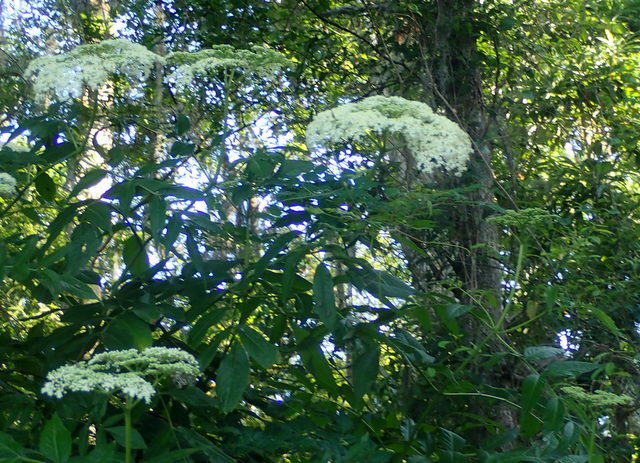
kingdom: Plantae
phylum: Tracheophyta
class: Magnoliopsida
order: Dipsacales
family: Viburnaceae
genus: Sambucus
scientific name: Sambucus canadensis
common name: American elder
